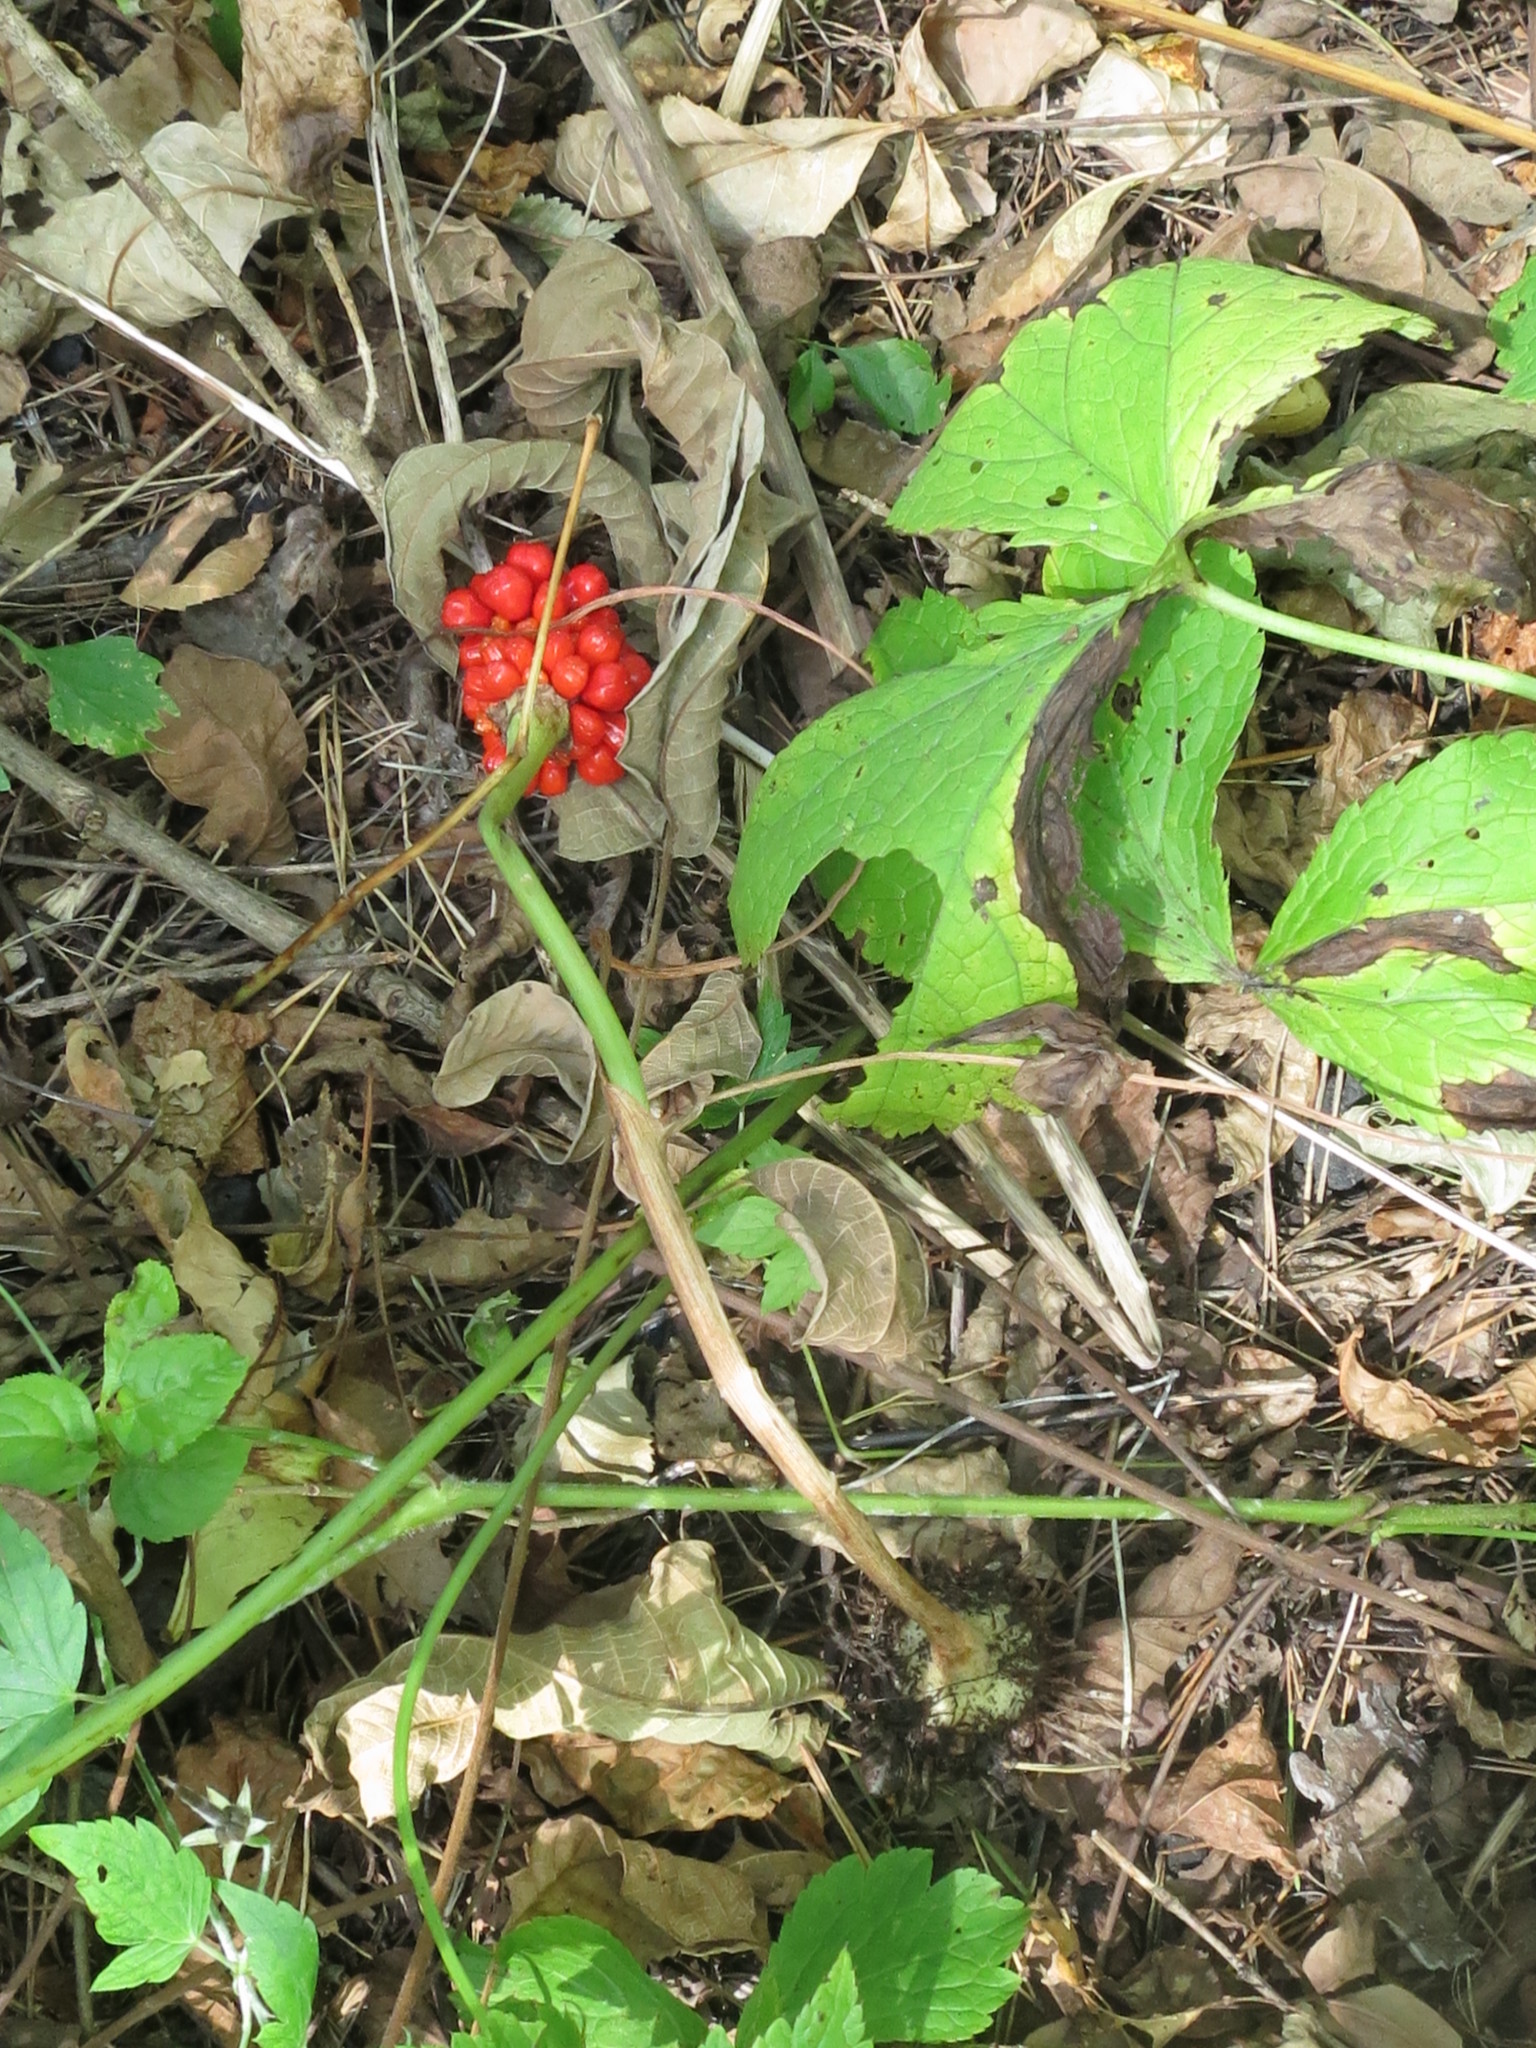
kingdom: Plantae
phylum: Tracheophyta
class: Liliopsida
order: Alismatales
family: Araceae
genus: Arisaema
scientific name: Arisaema amurense
